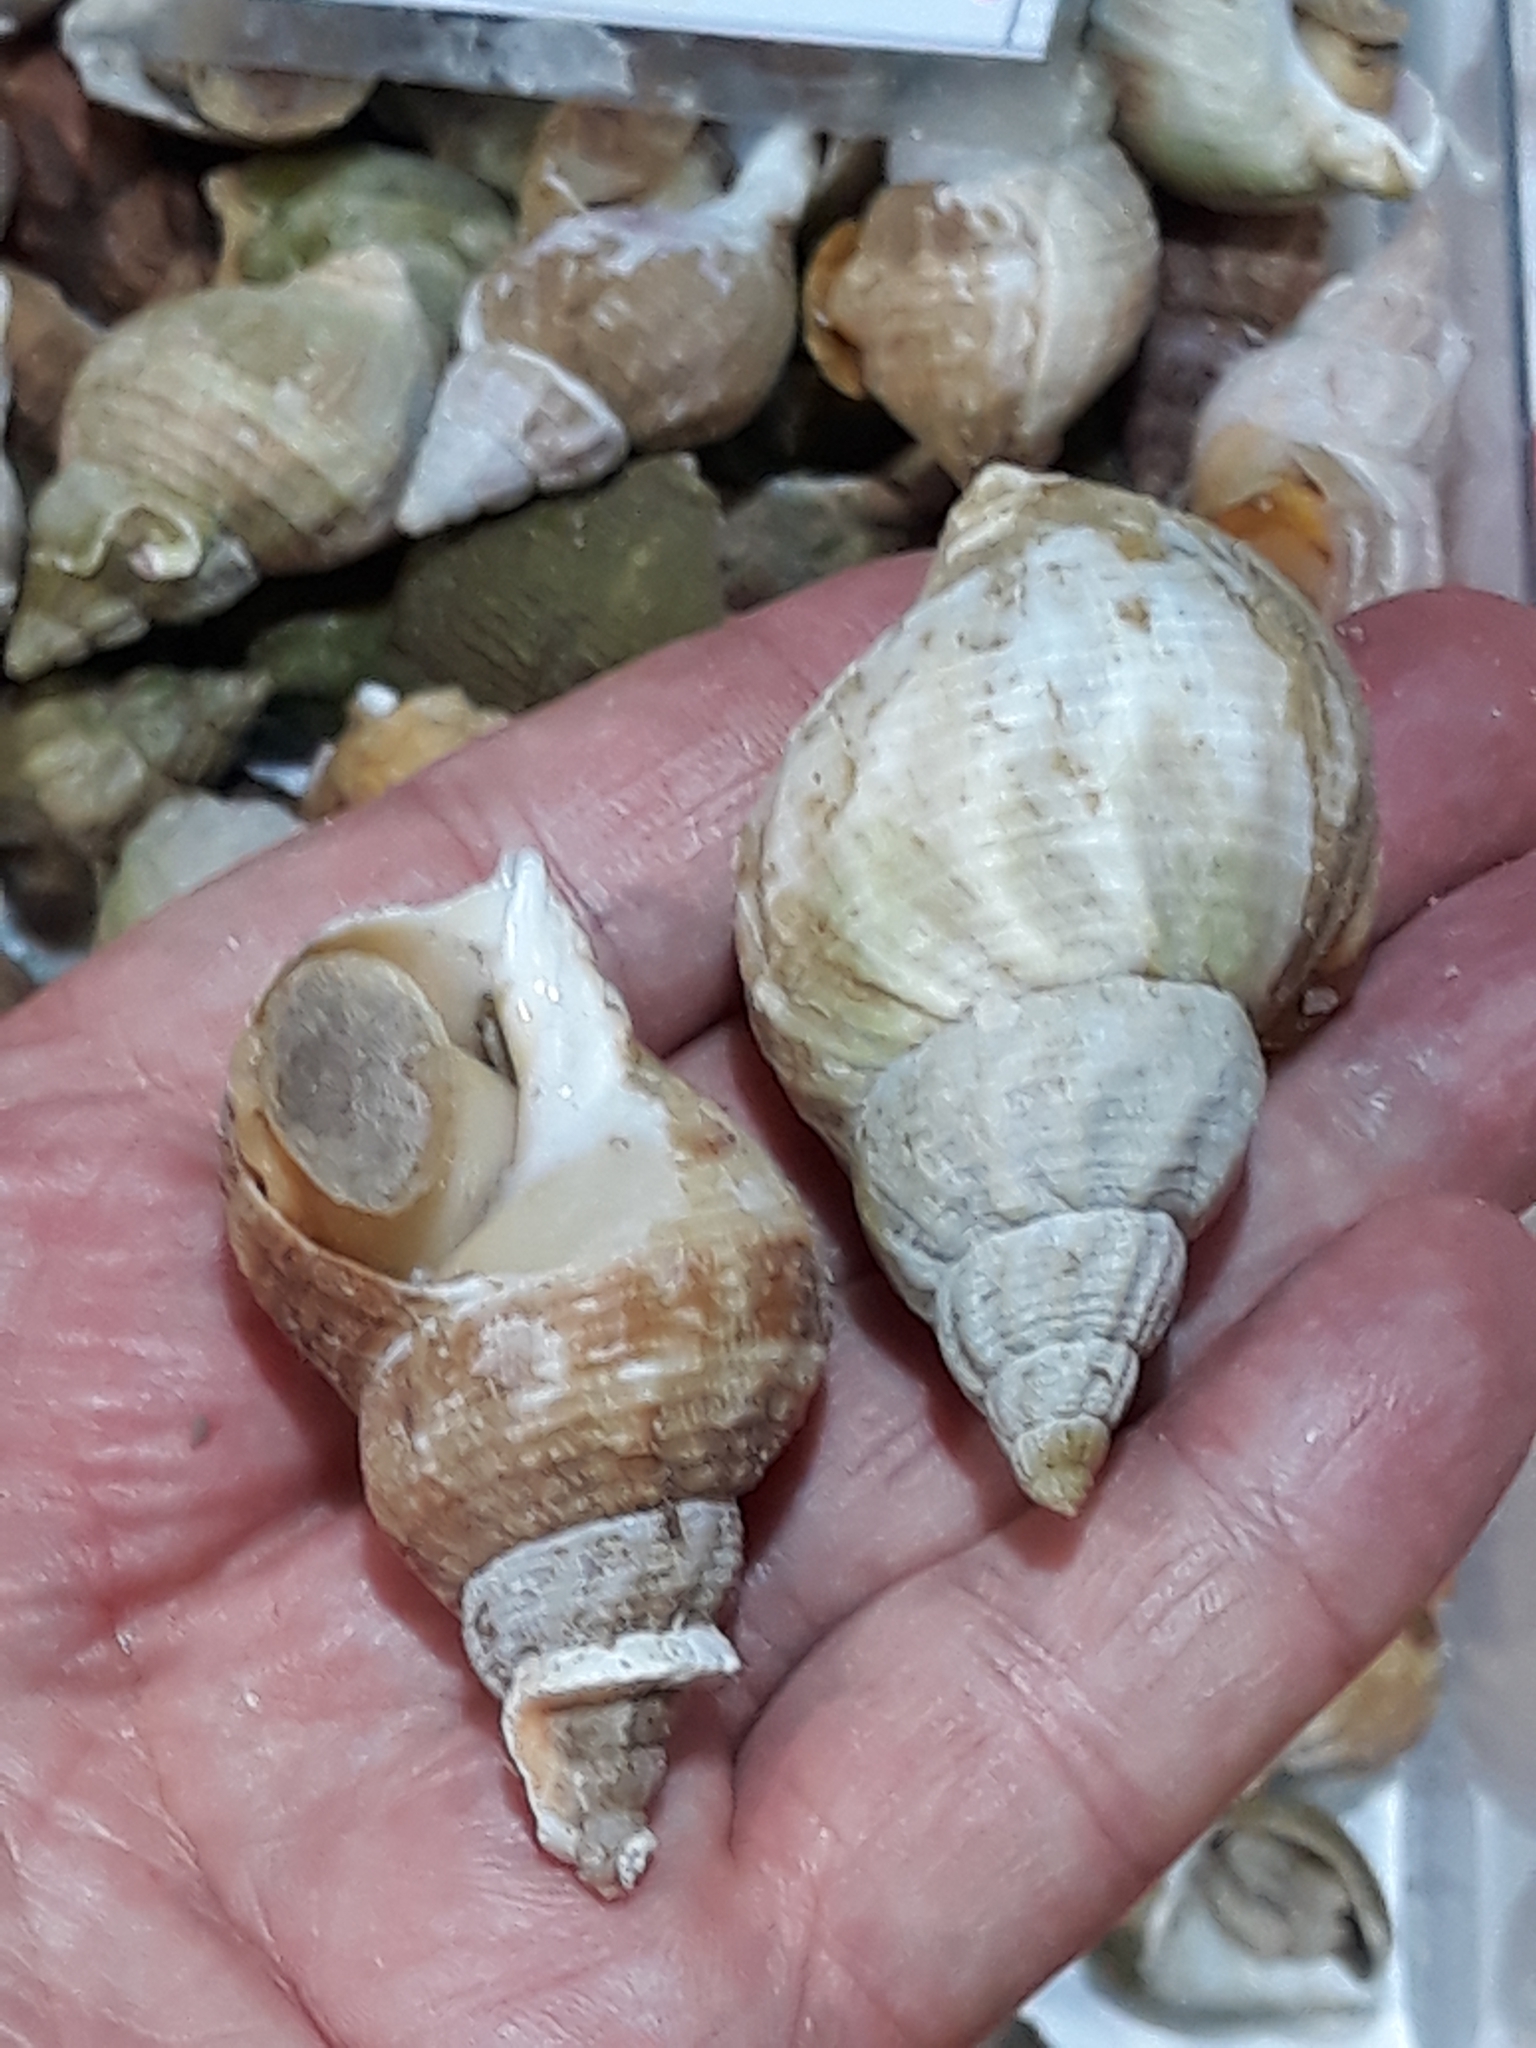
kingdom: Animalia
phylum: Mollusca
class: Gastropoda
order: Neogastropoda
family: Buccinidae
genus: Buccinum
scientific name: Buccinum undatum
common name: Common whelk
